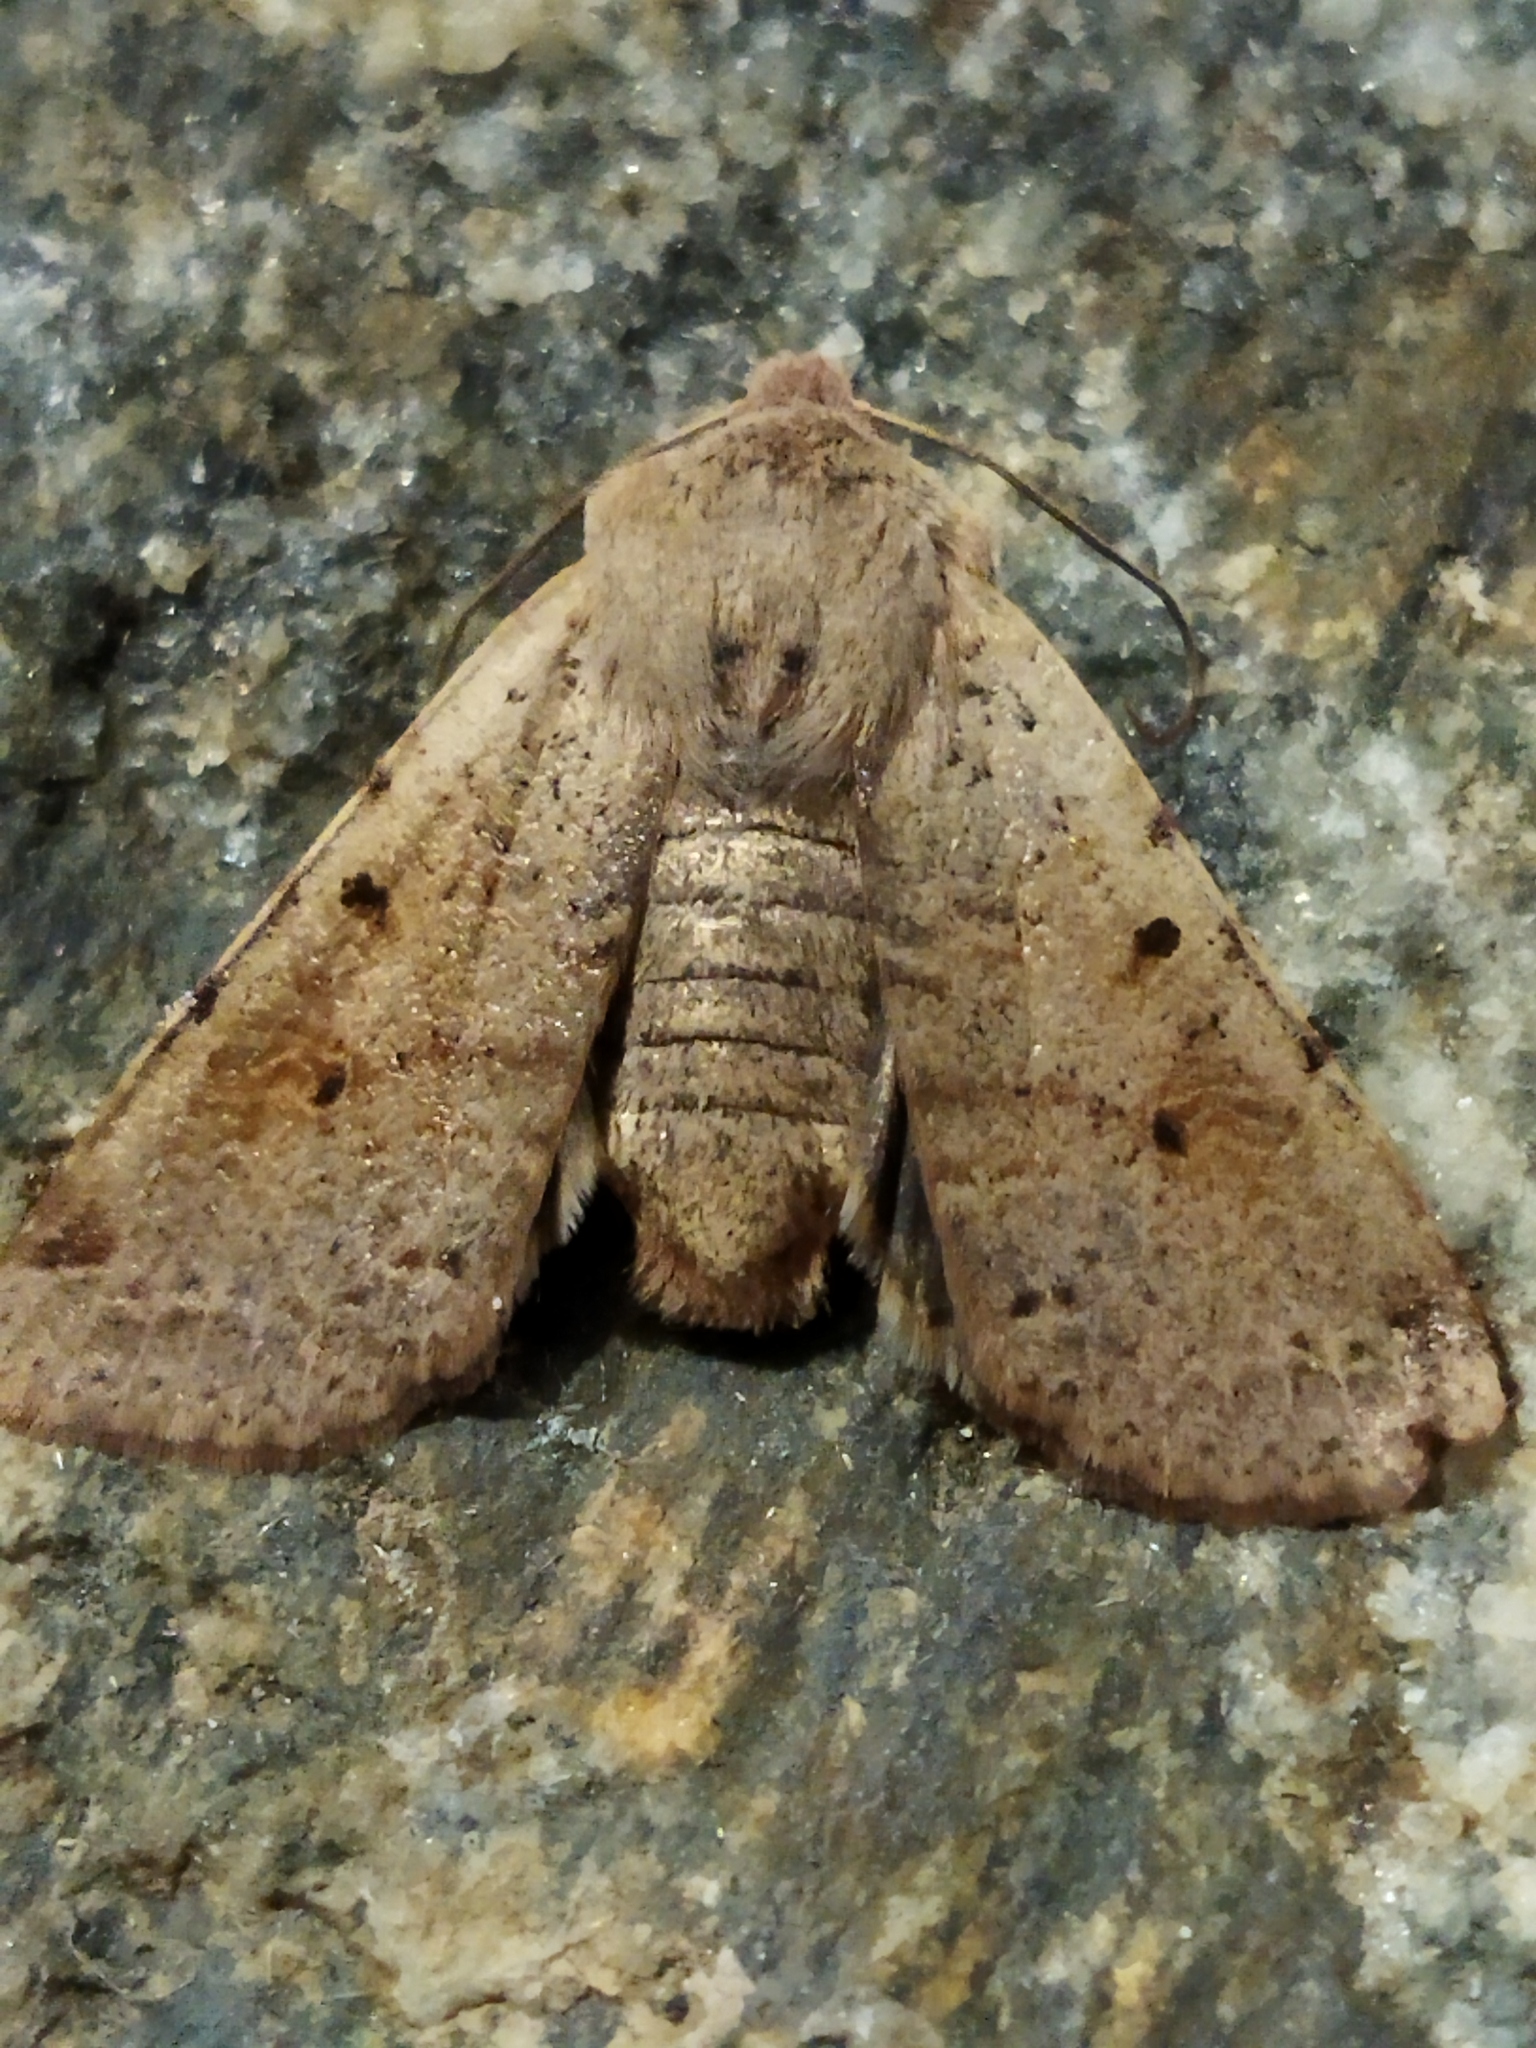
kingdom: Animalia
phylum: Arthropoda
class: Insecta
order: Lepidoptera
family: Noctuidae
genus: Agrochola
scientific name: Agrochola lychnidis
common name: Beaded chestnut
